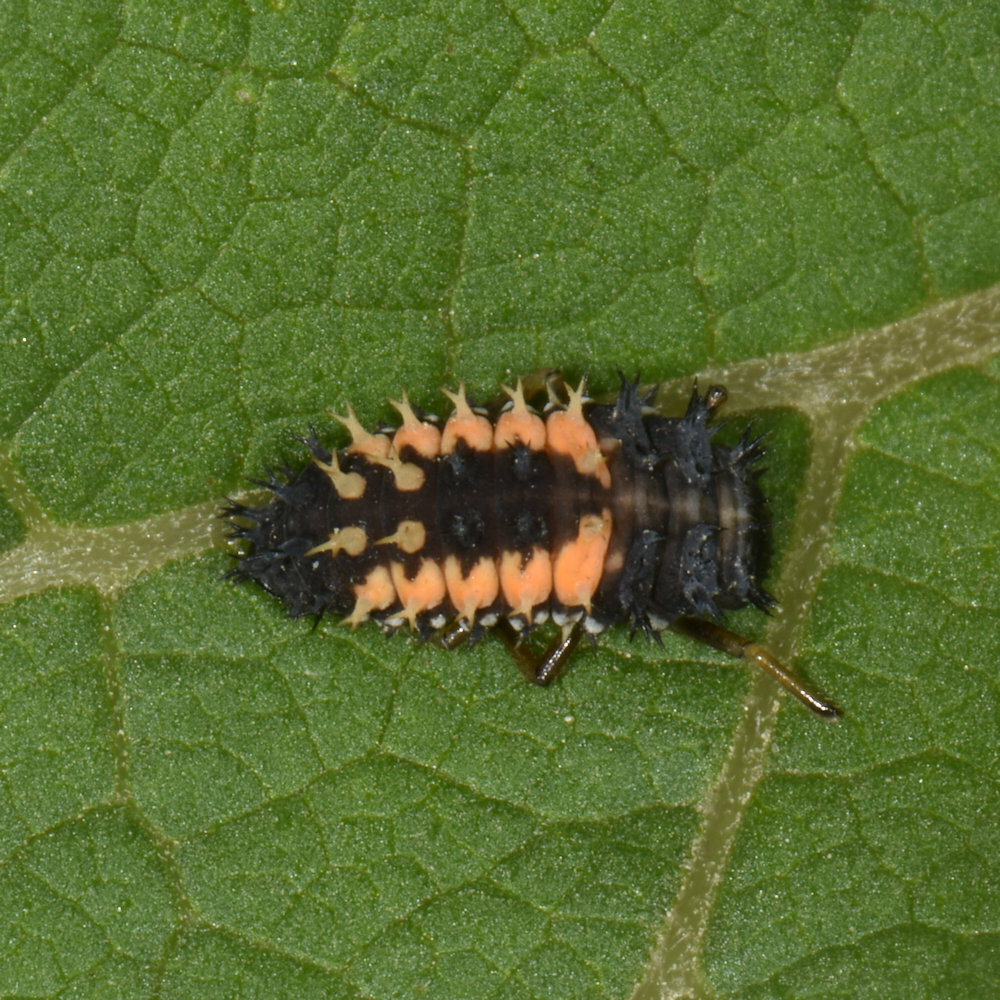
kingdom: Animalia
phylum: Arthropoda
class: Insecta
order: Coleoptera
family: Coccinellidae
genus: Harmonia
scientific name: Harmonia axyridis
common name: Harlequin ladybird
